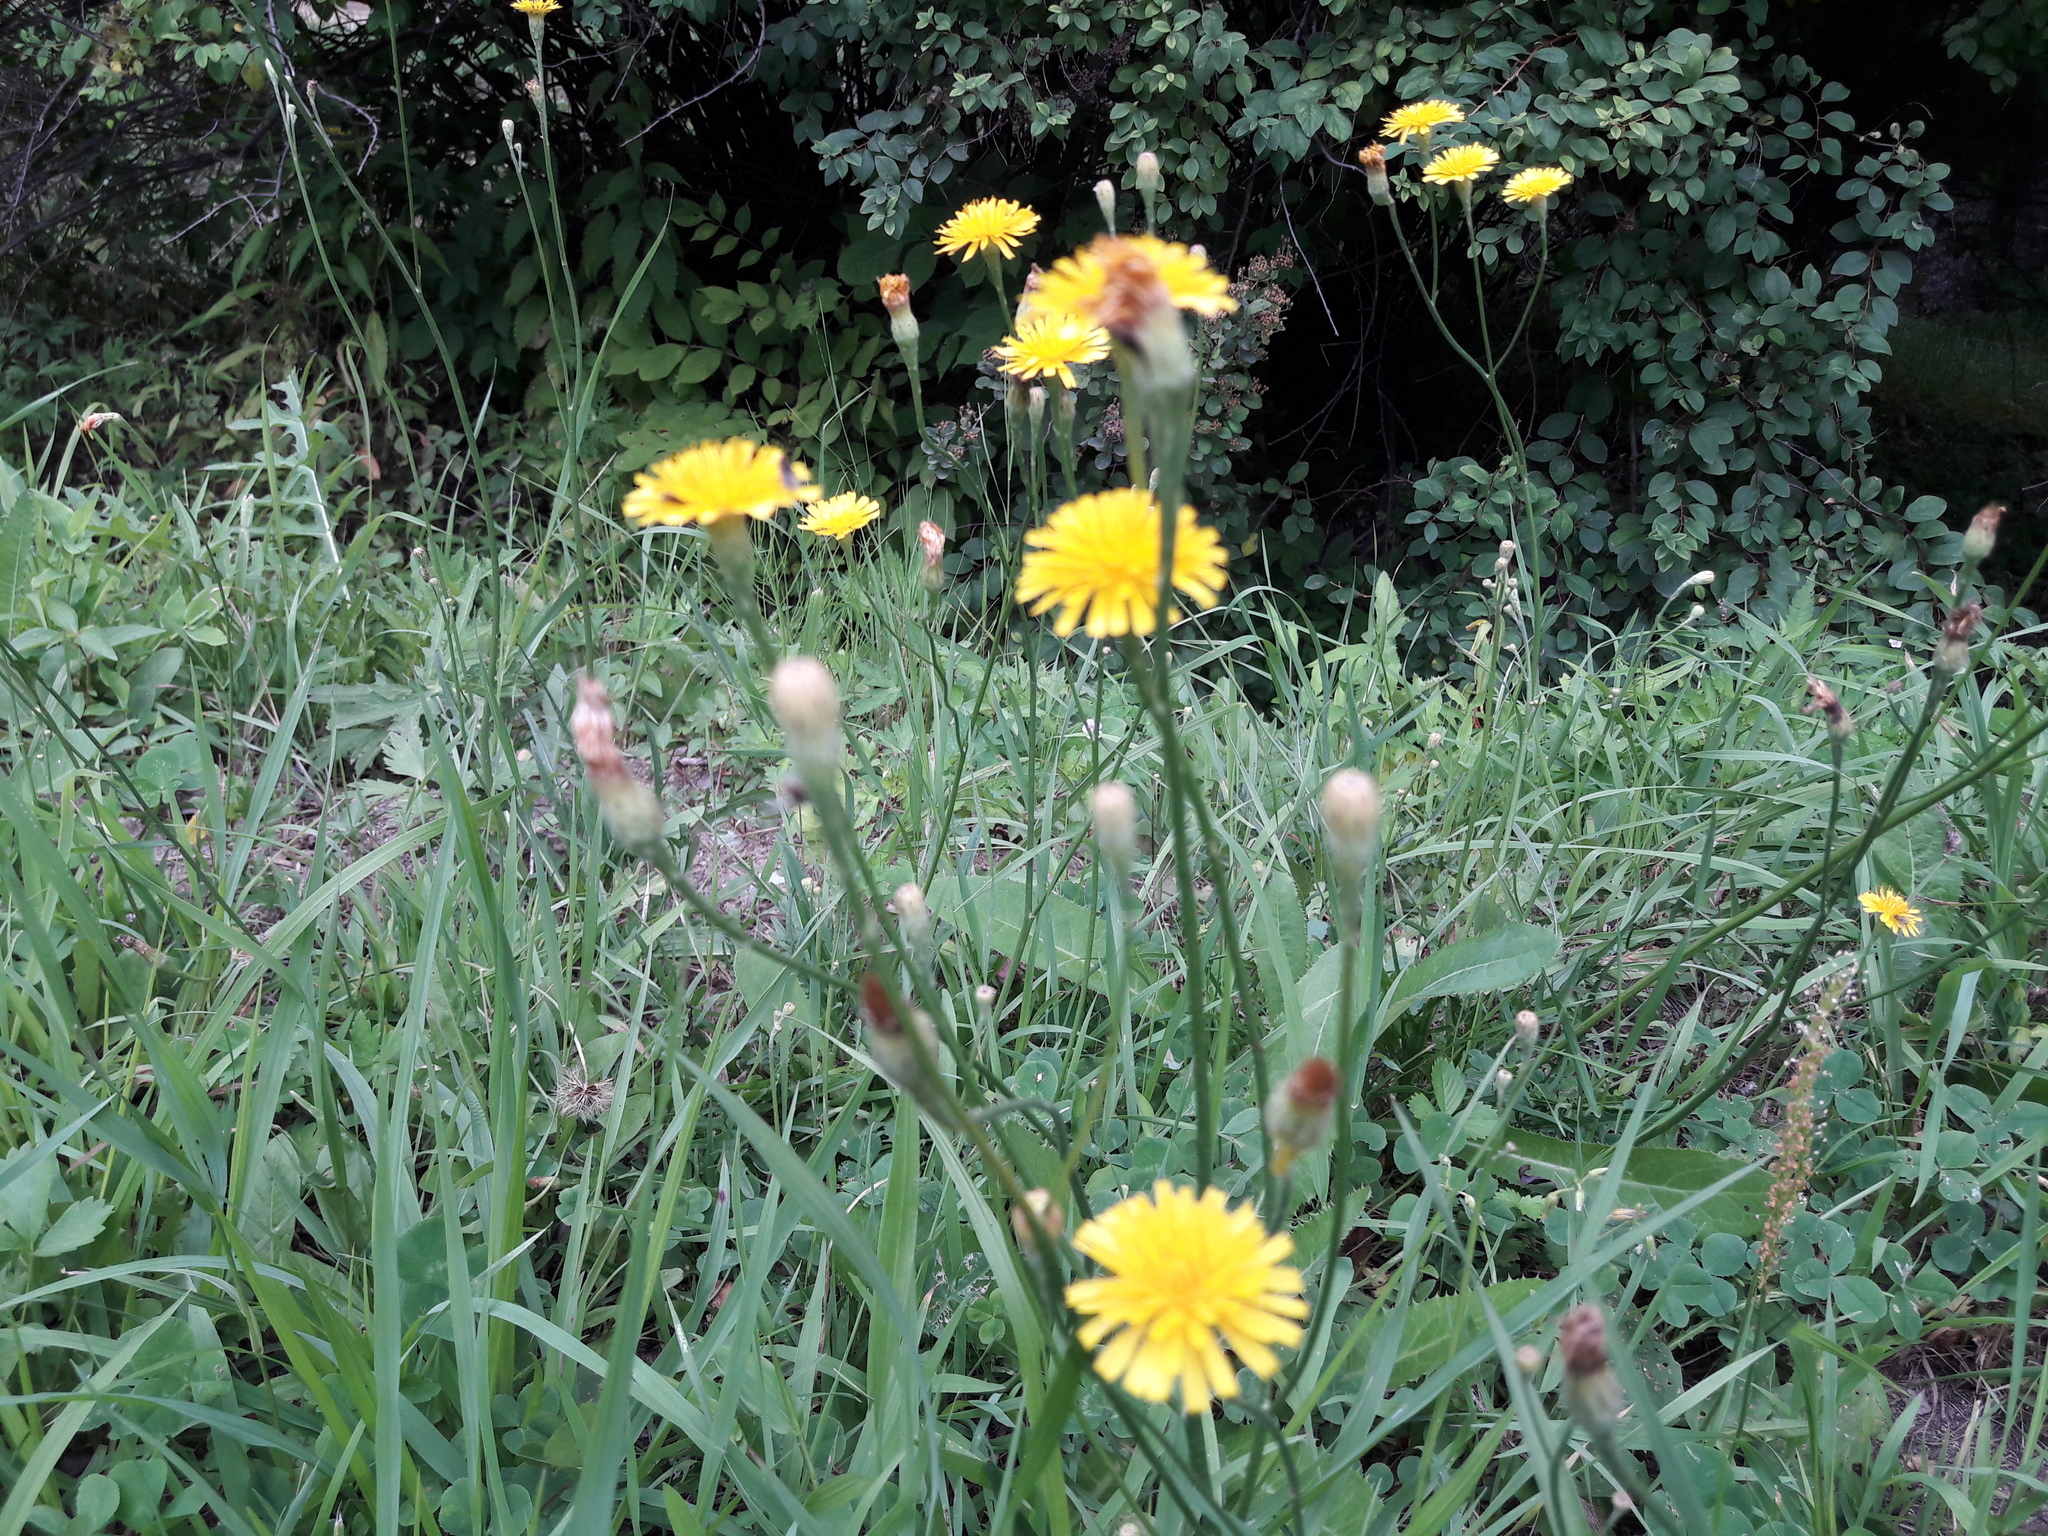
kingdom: Plantae
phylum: Tracheophyta
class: Magnoliopsida
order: Asterales
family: Asteraceae
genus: Scorzoneroides
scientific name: Scorzoneroides autumnalis
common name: Autumn hawkbit
